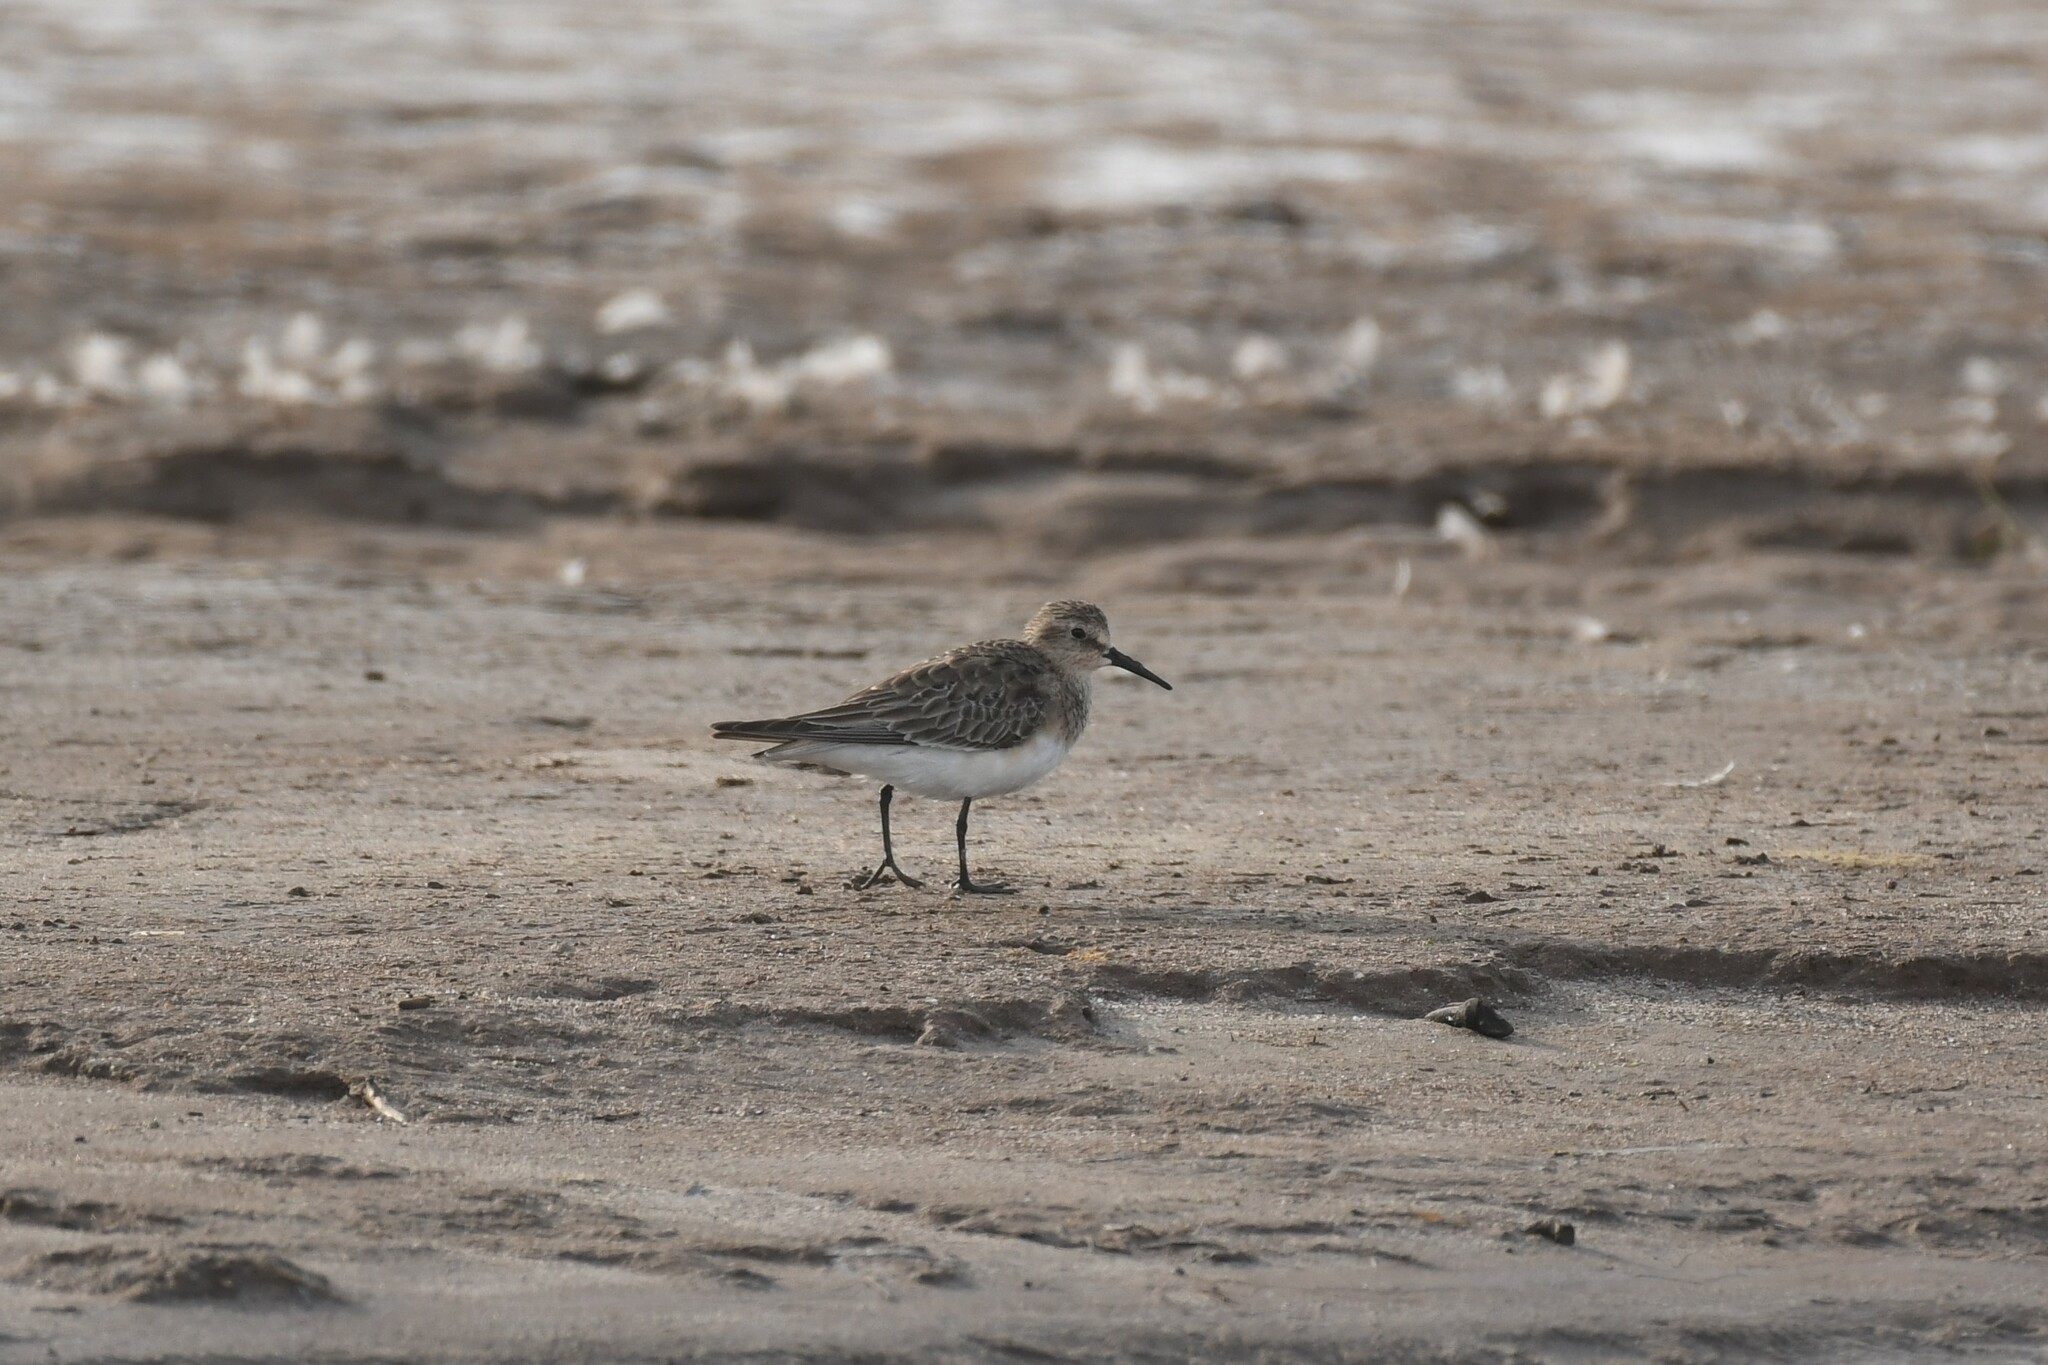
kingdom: Animalia
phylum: Chordata
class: Aves
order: Charadriiformes
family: Scolopacidae
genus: Calidris
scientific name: Calidris bairdii
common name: Baird's sandpiper
